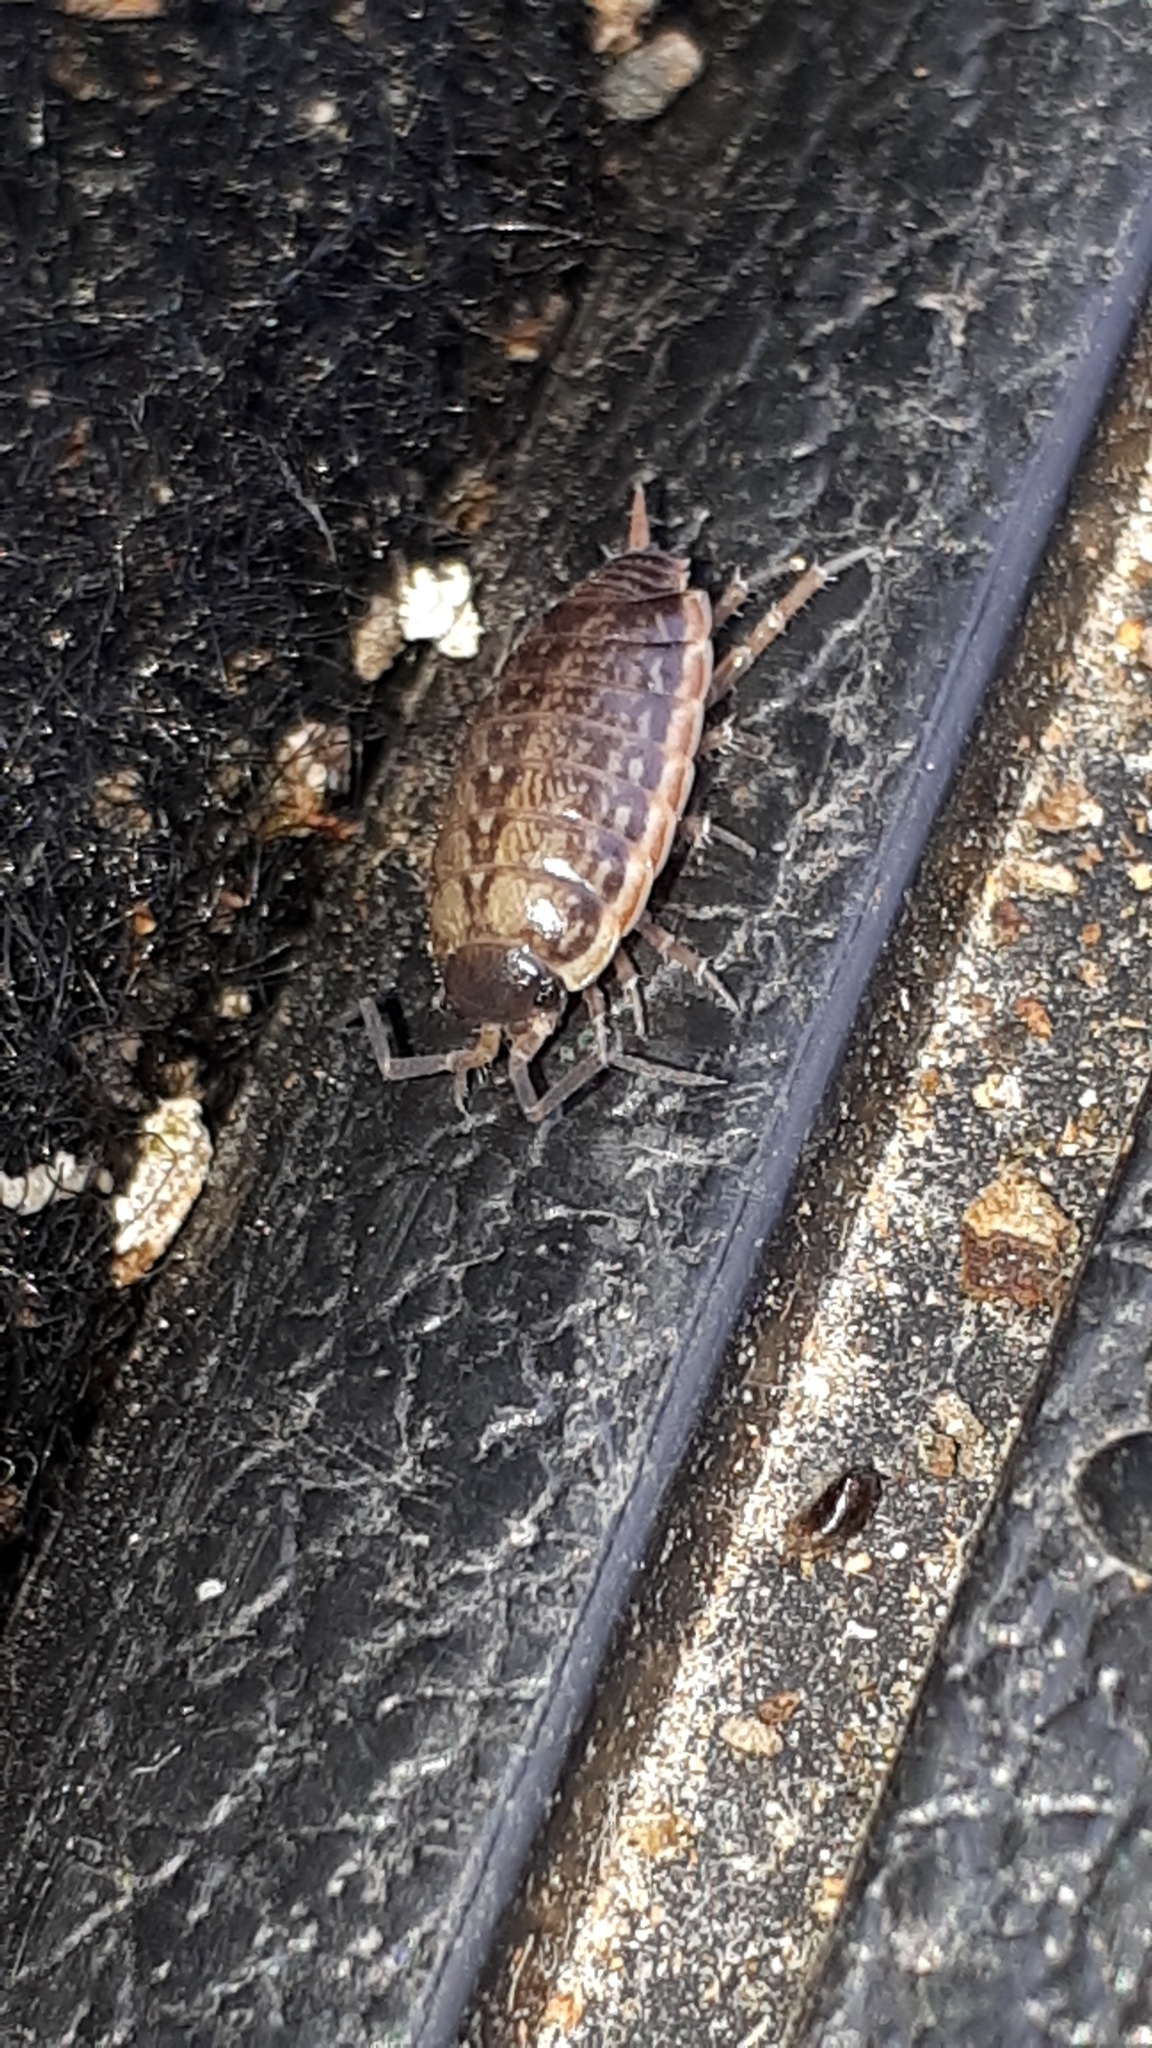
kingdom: Animalia
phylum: Arthropoda
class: Malacostraca
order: Isopoda
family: Philosciidae
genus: Philoscia
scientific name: Philoscia muscorum
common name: Common striped woodlouse
